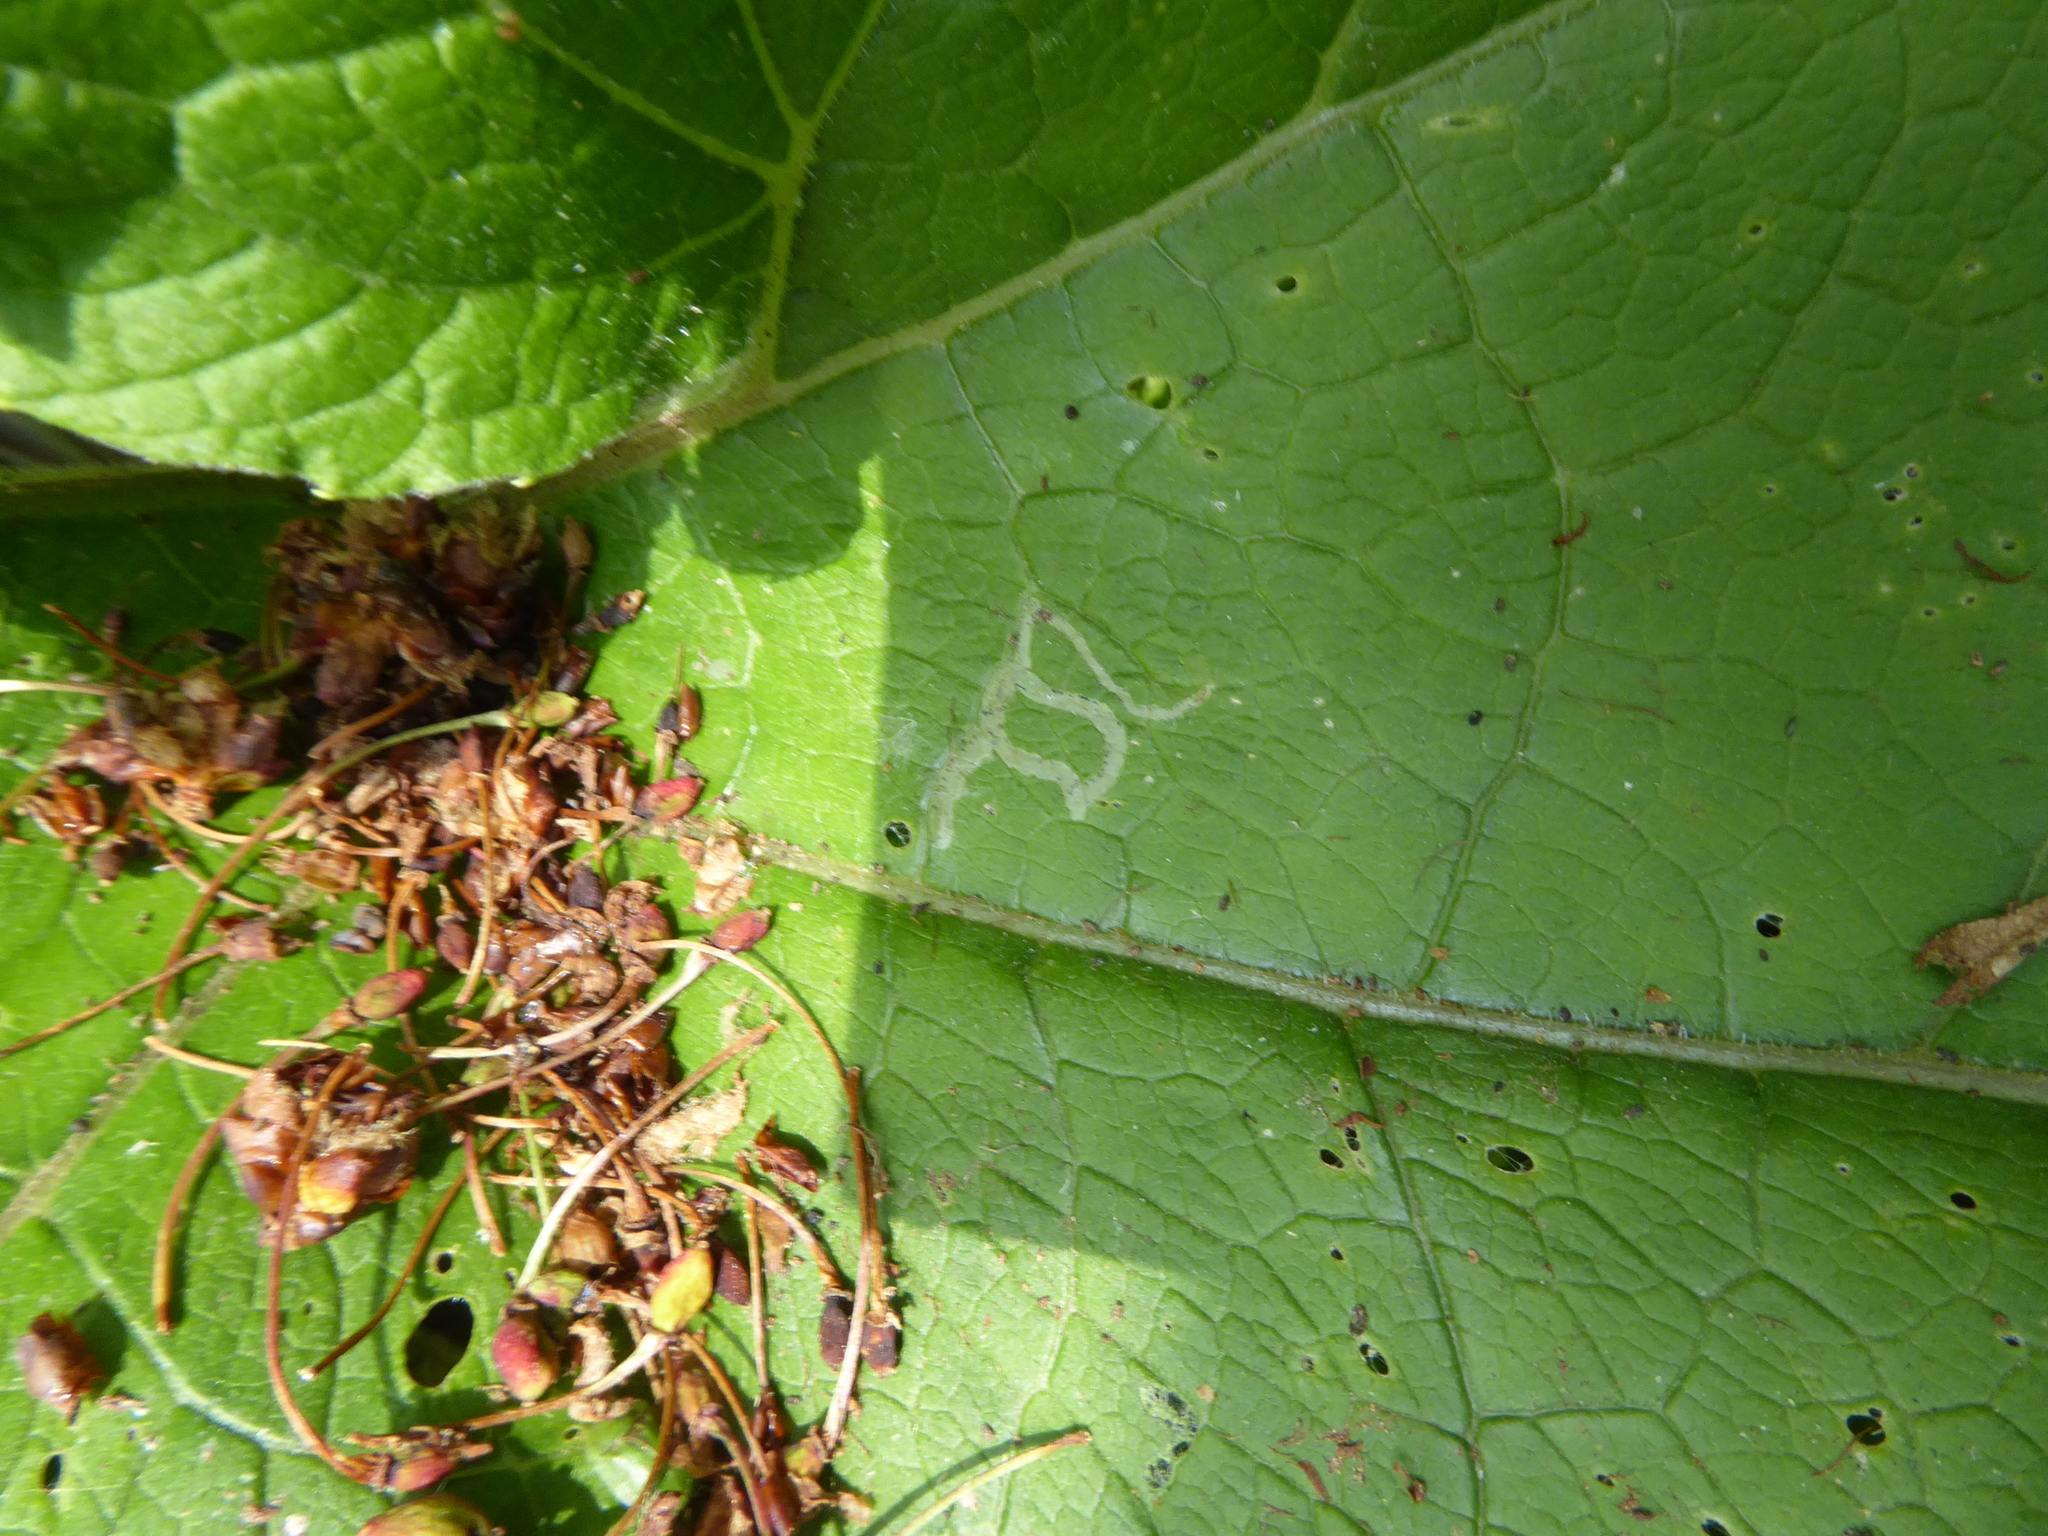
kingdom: Animalia
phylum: Arthropoda
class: Insecta
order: Diptera
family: Agromyzidae
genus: Phytomyza
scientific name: Phytomyza lappae
